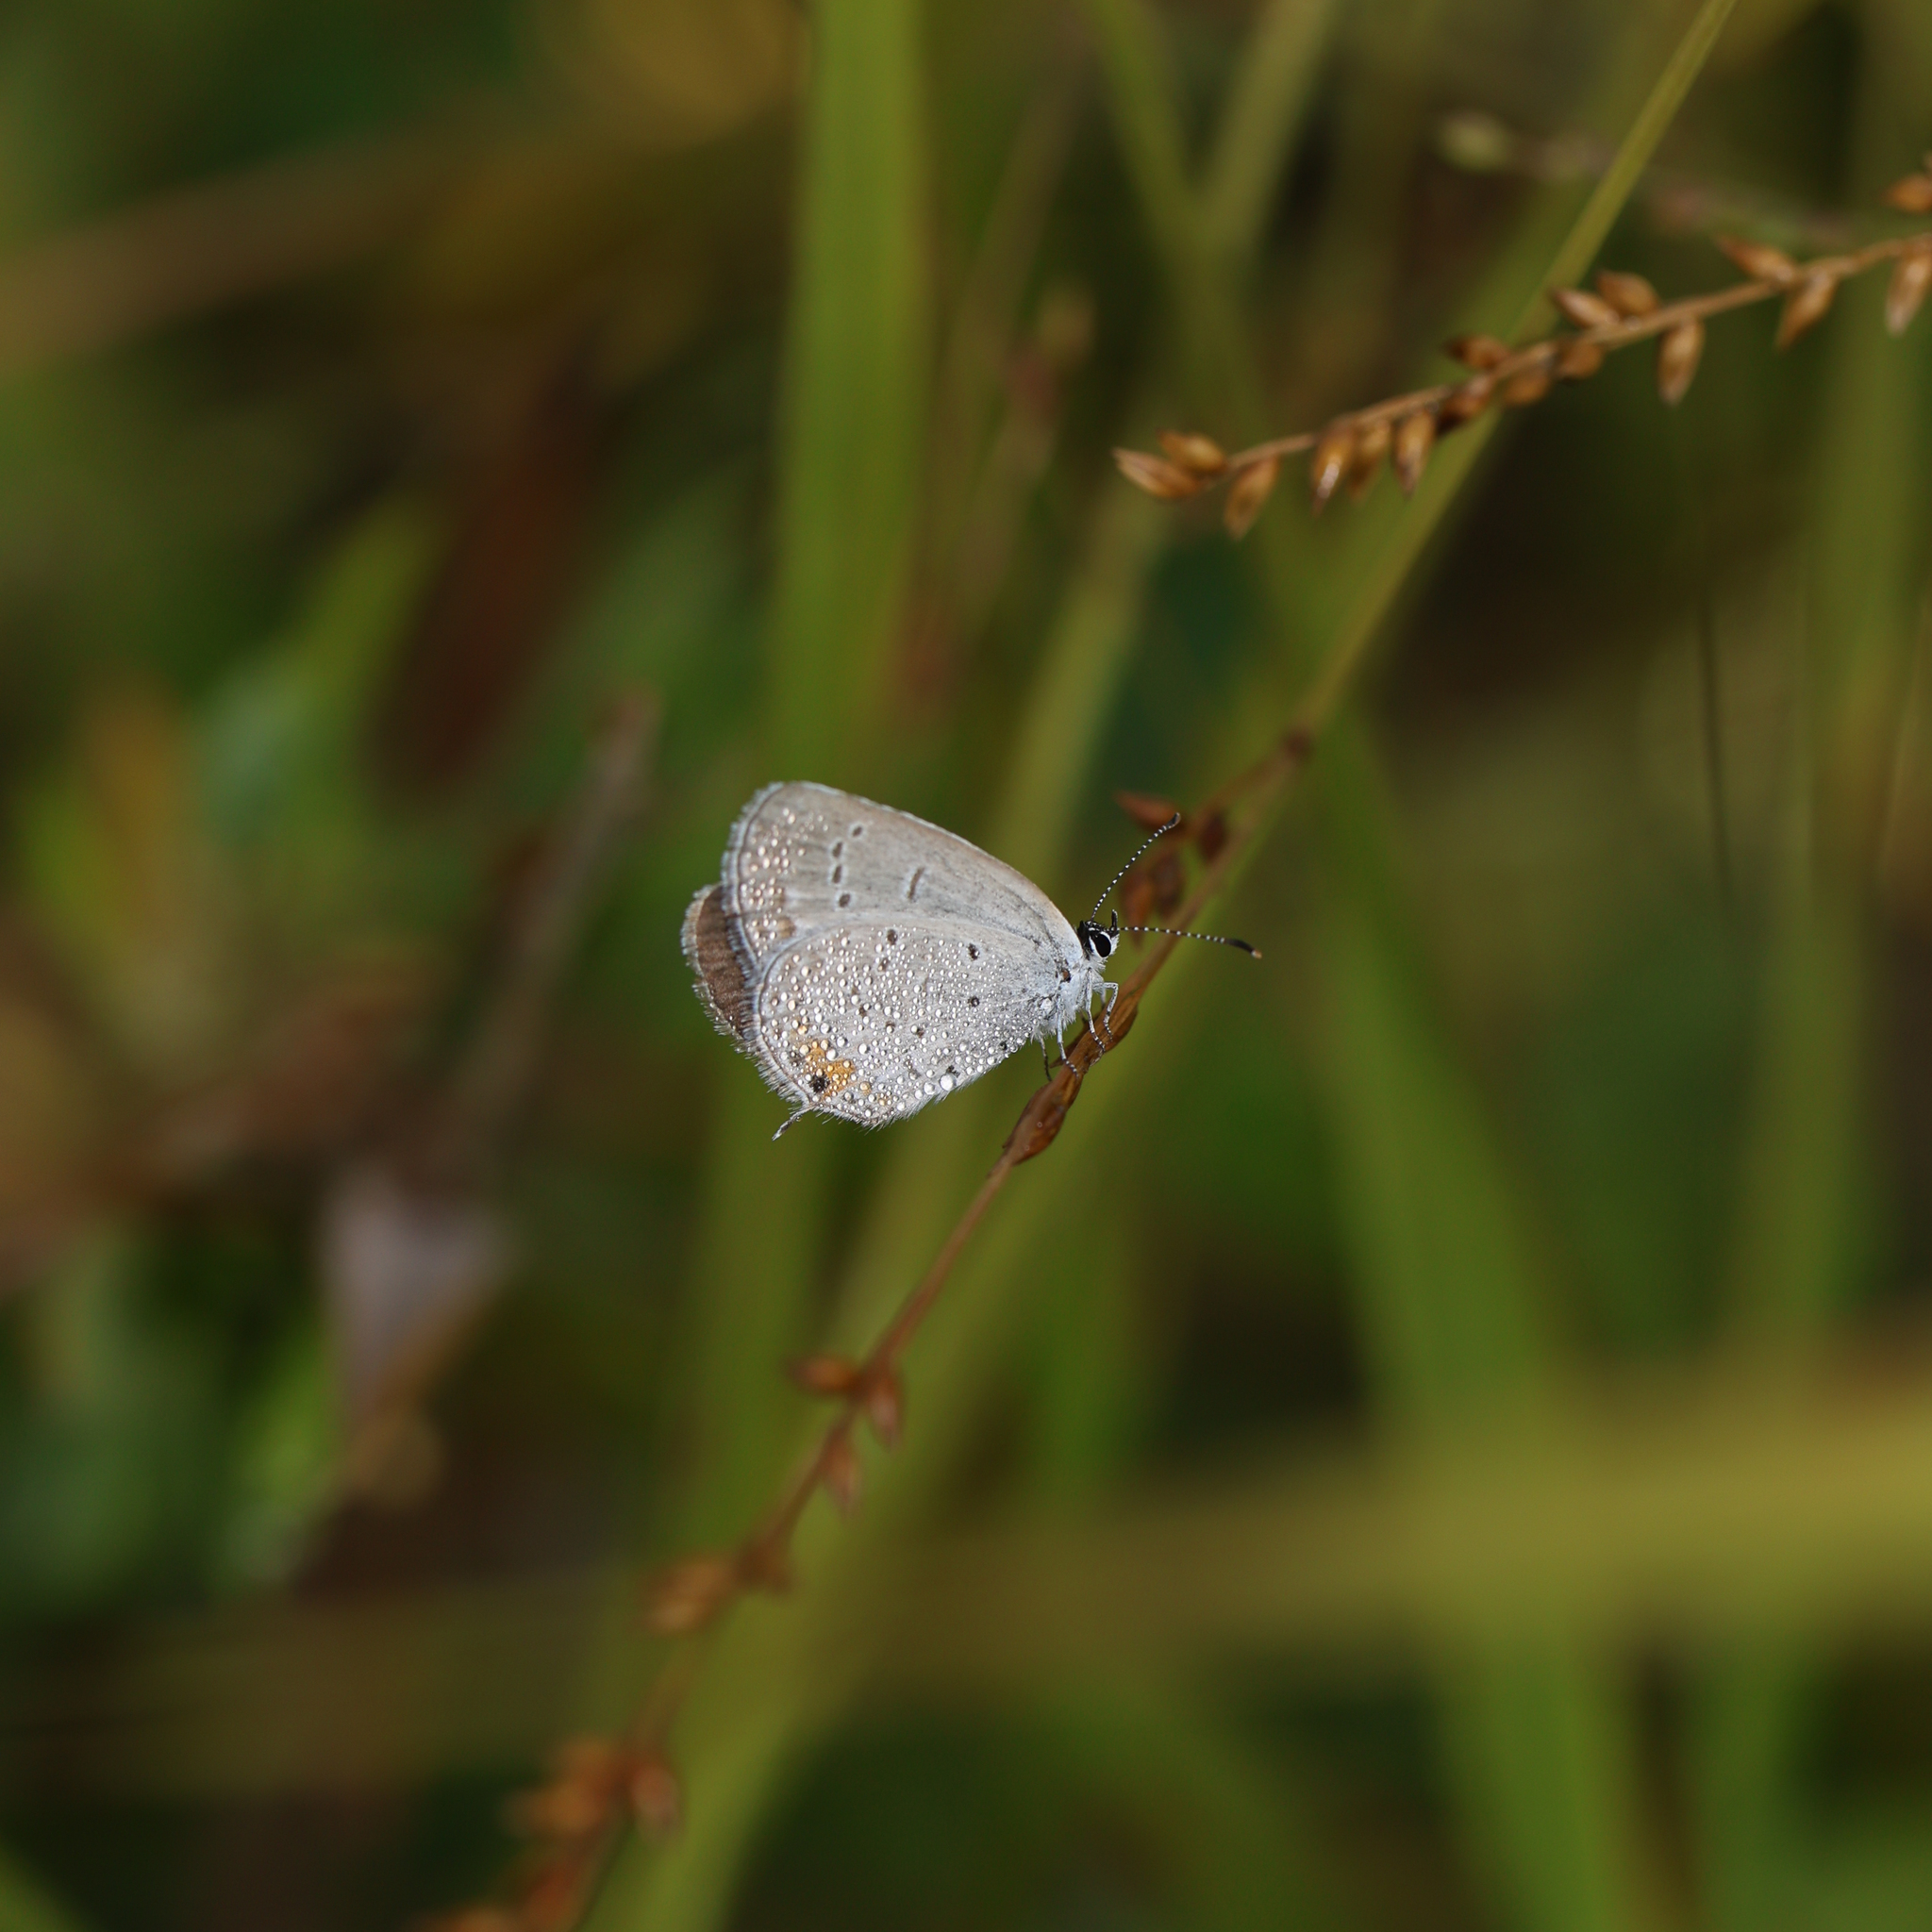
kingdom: Animalia
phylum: Arthropoda
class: Insecta
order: Lepidoptera
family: Lycaenidae
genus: Elkalyce
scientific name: Elkalyce comyntas
